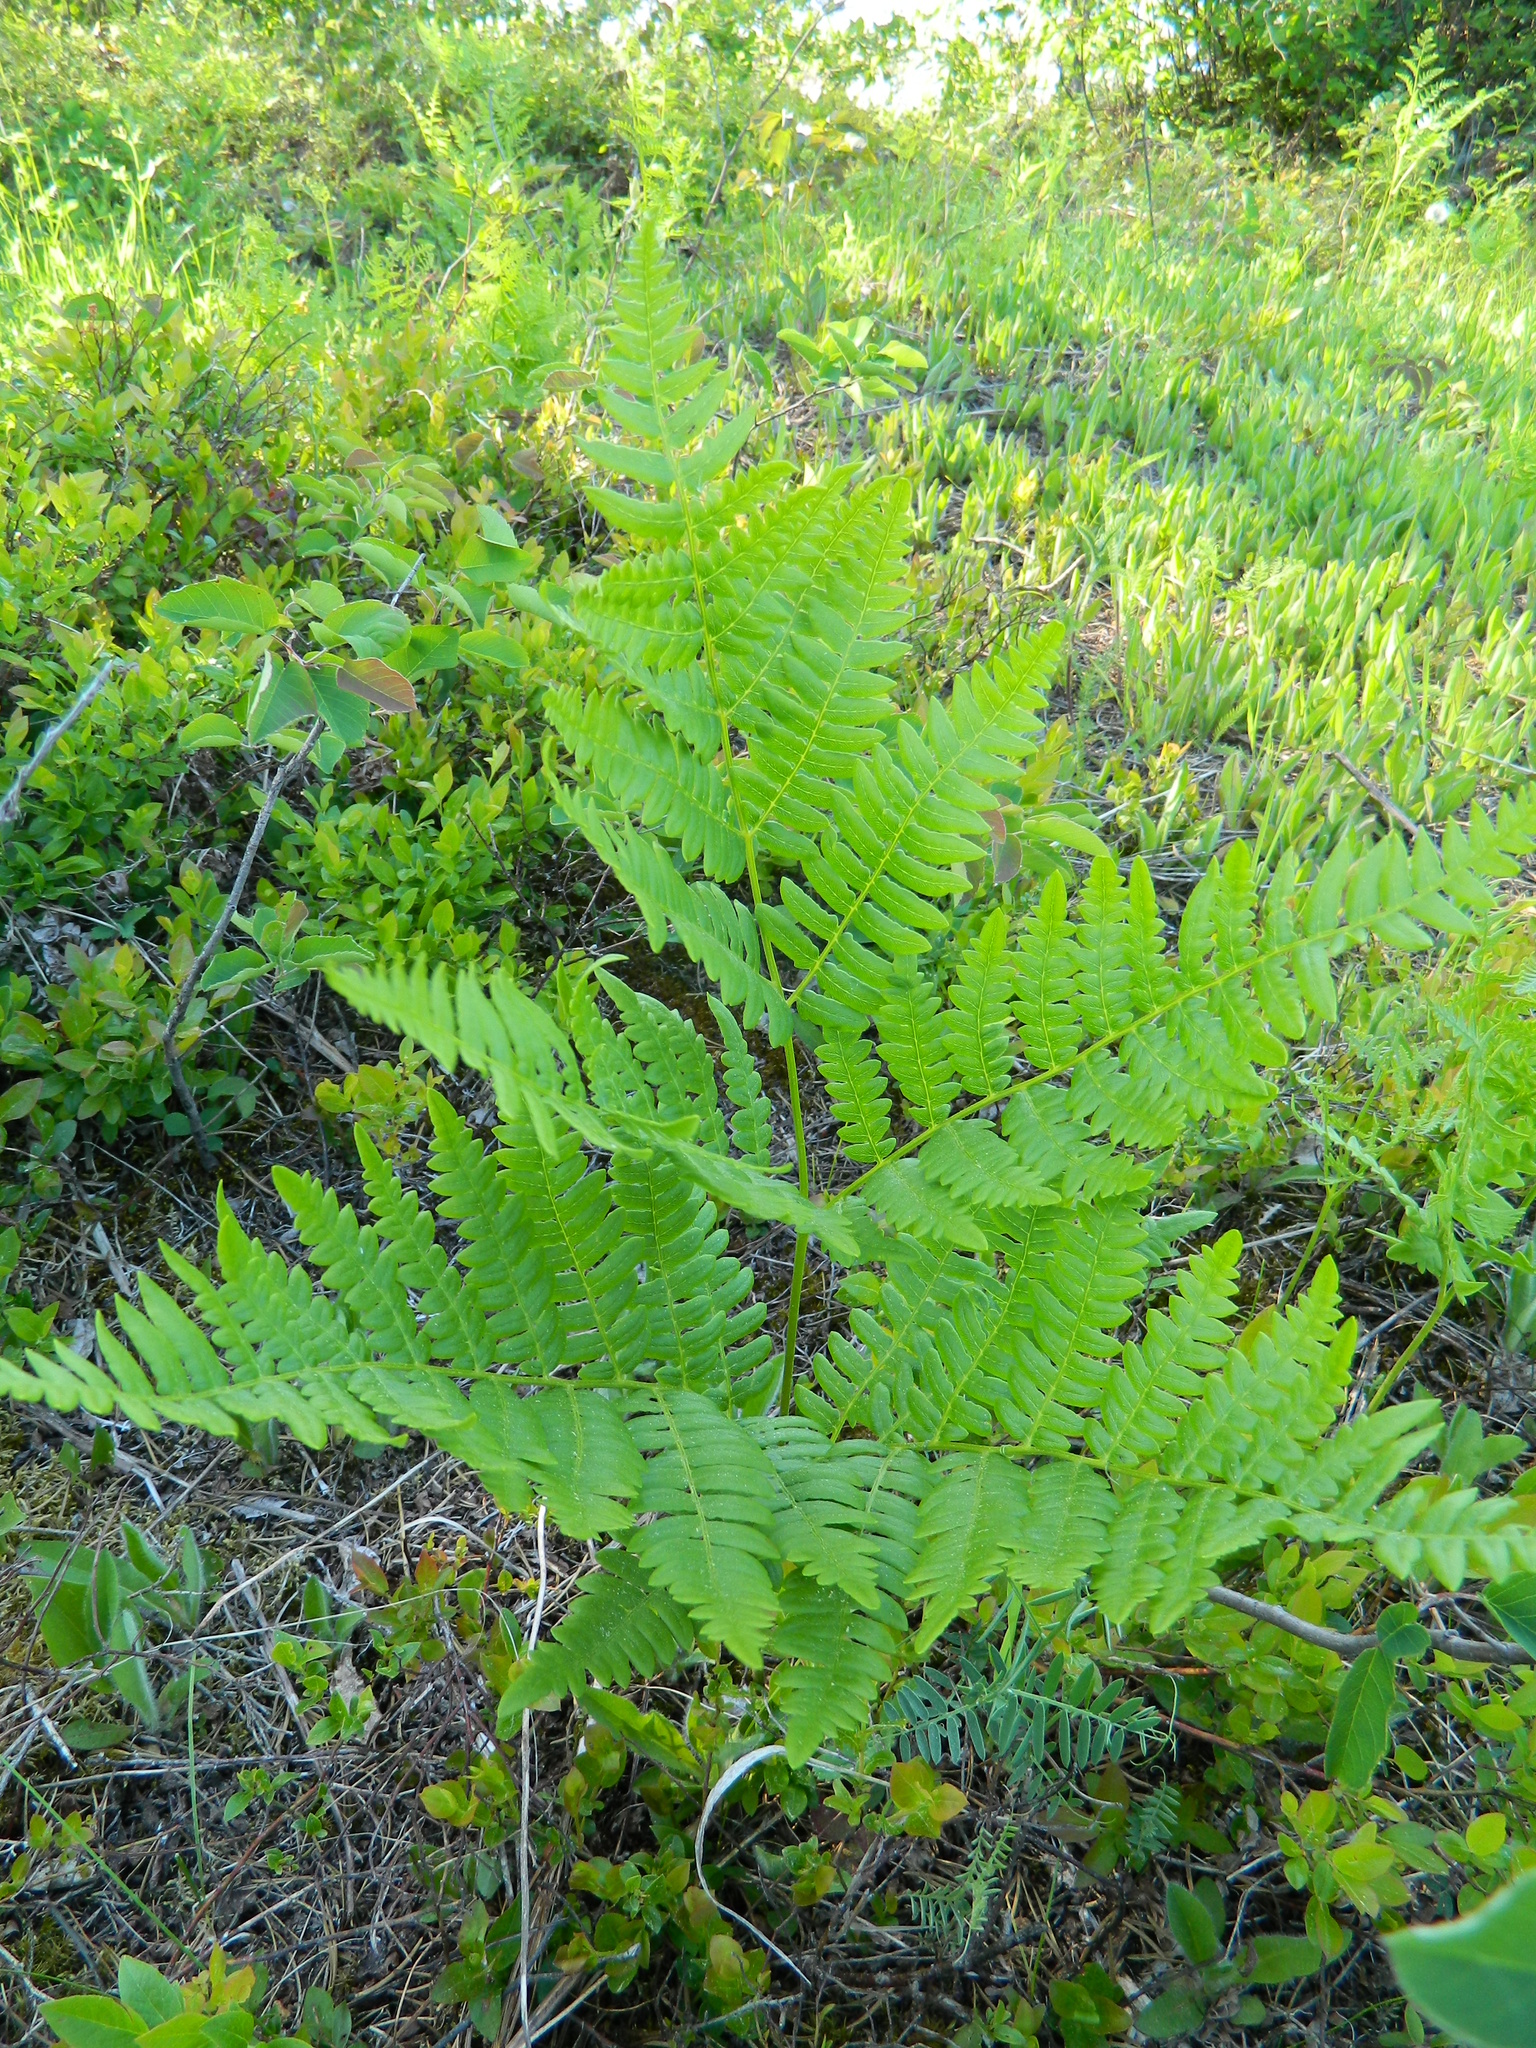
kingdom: Plantae
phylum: Tracheophyta
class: Polypodiopsida
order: Polypodiales
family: Dennstaedtiaceae
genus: Pteridium
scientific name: Pteridium aquilinum
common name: Bracken
